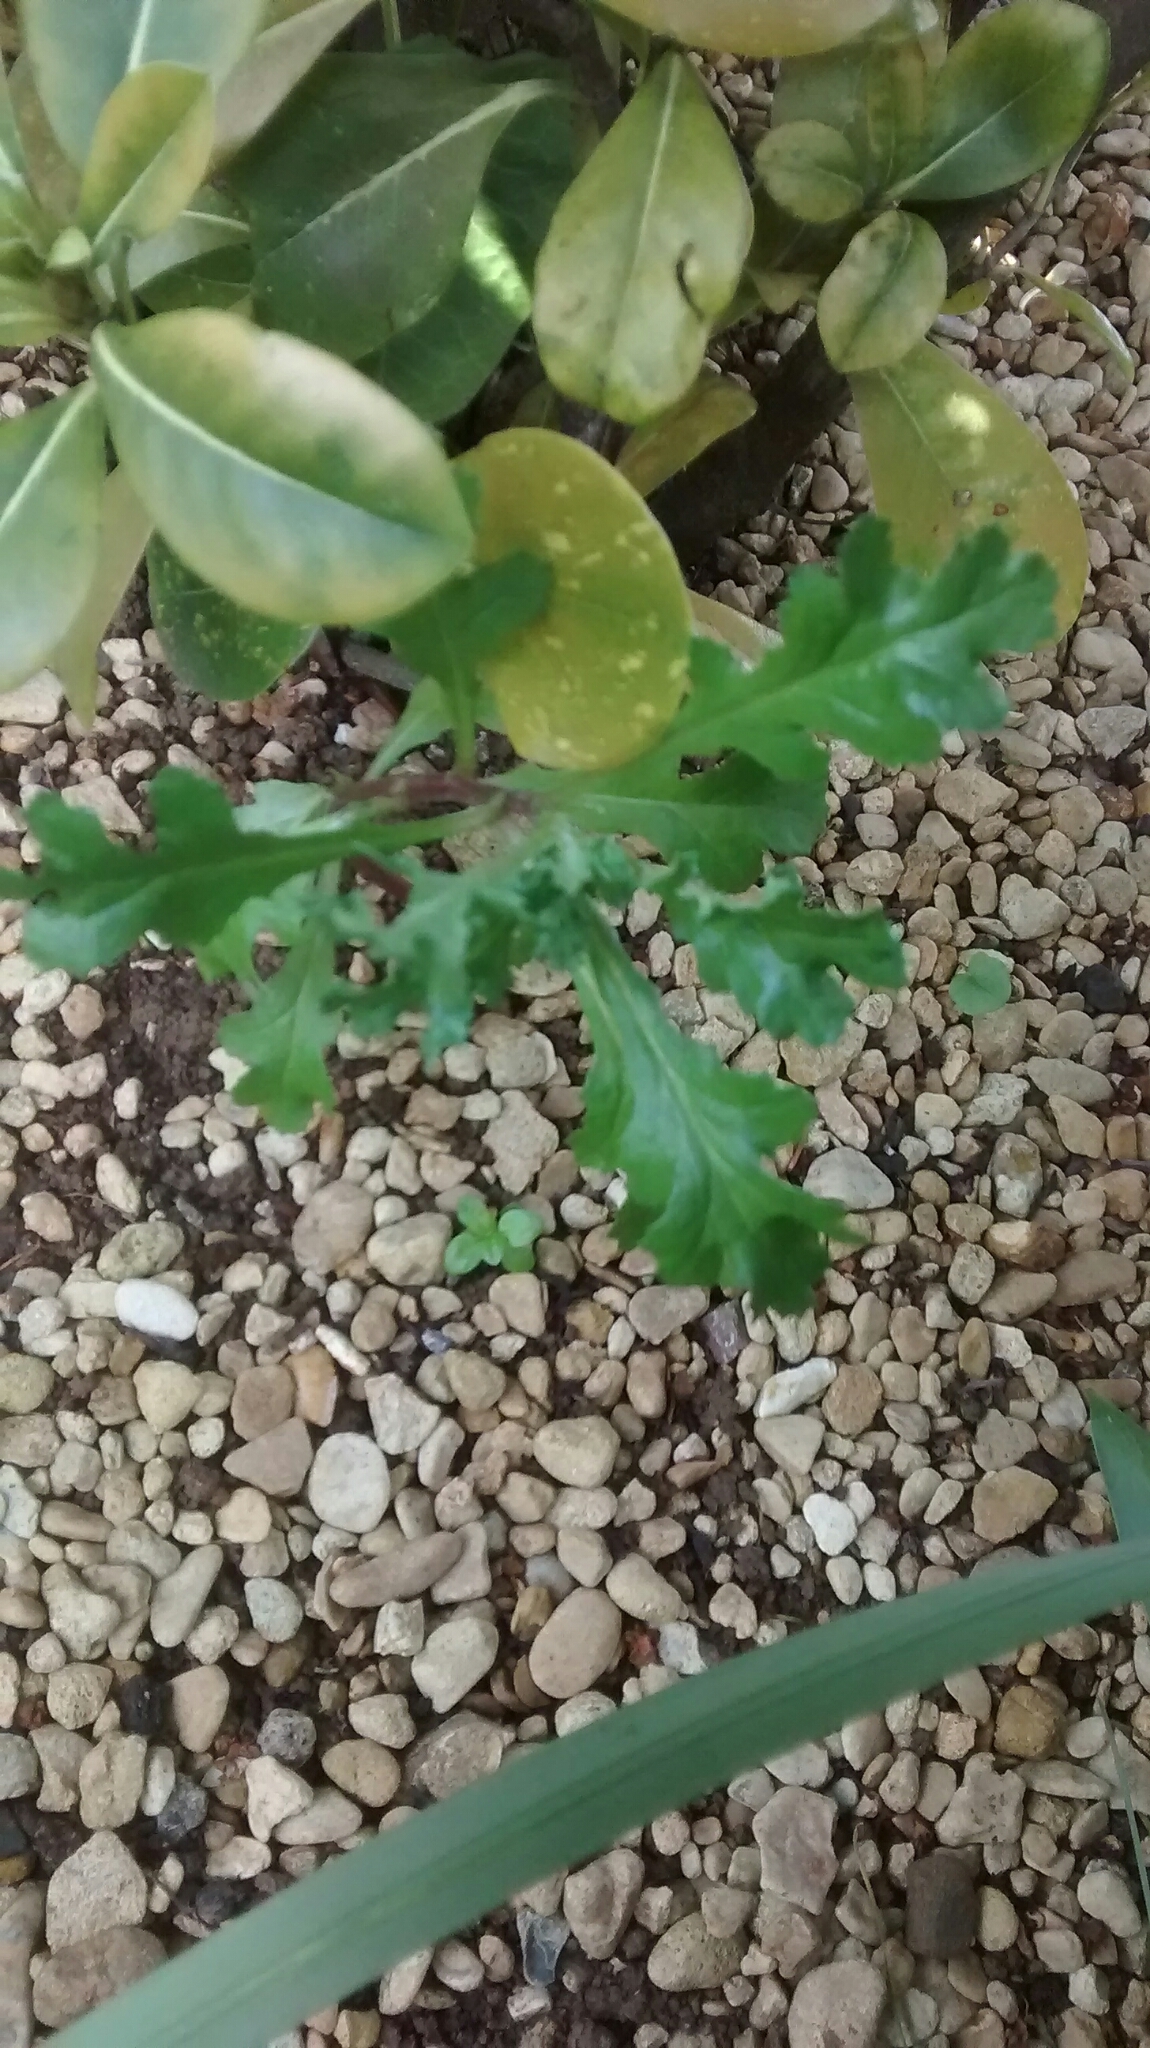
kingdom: Plantae
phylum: Tracheophyta
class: Magnoliopsida
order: Asterales
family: Asteraceae
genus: Senecio
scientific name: Senecio vulgaris
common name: Old-man-in-the-spring
